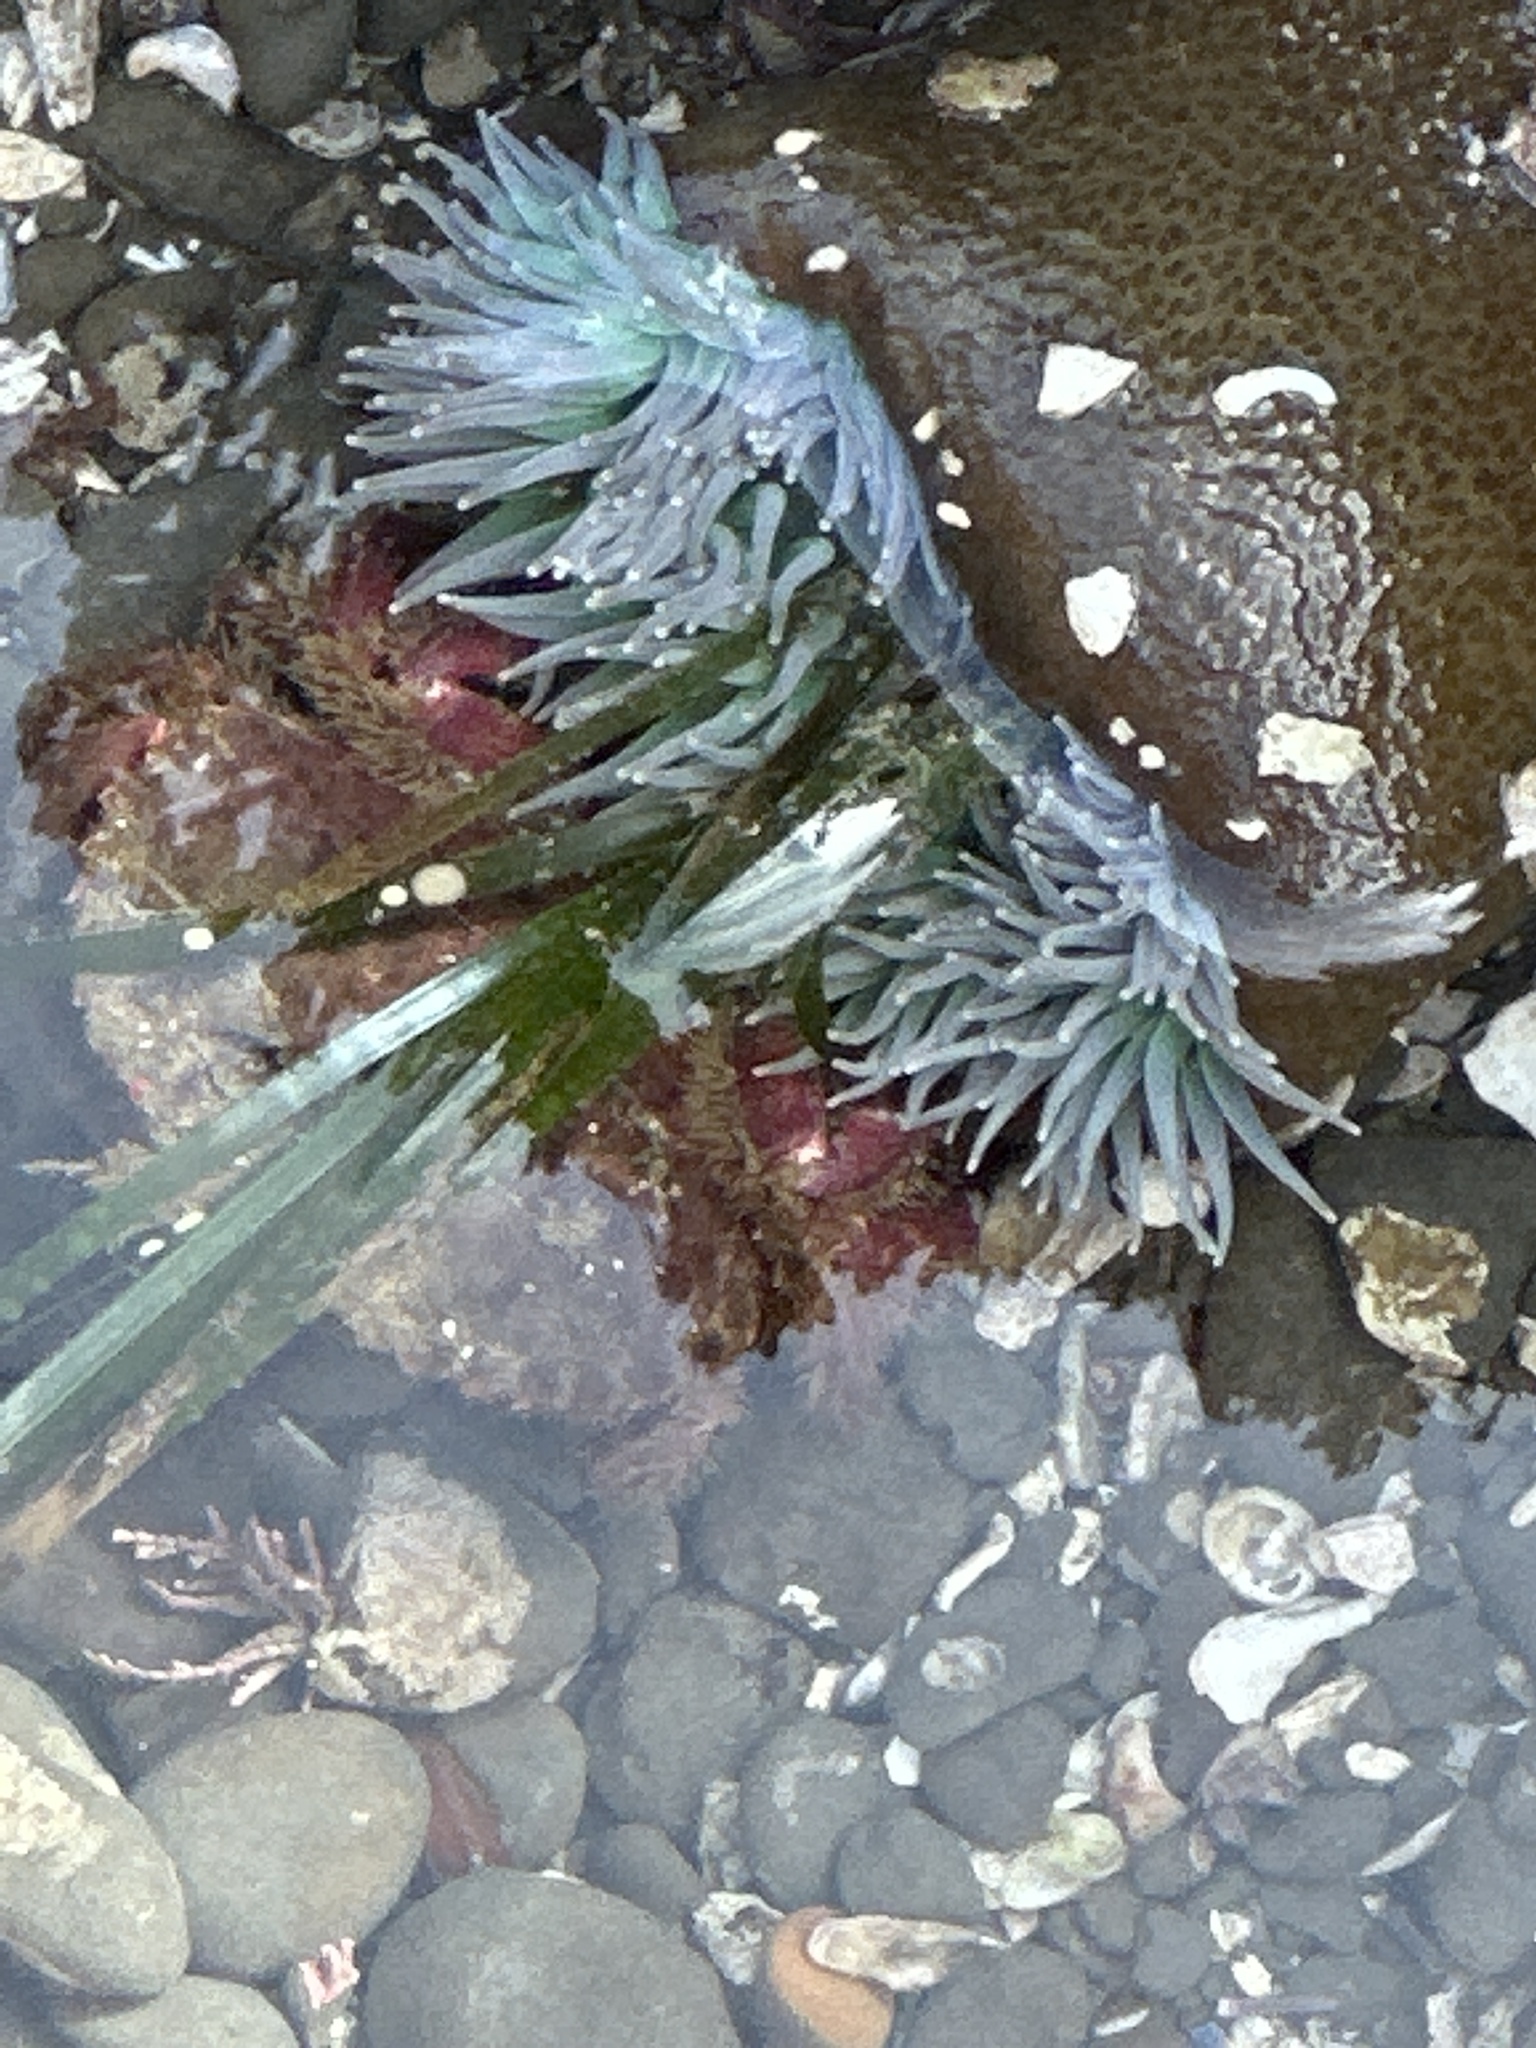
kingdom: Animalia
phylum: Cnidaria
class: Anthozoa
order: Actiniaria
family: Actiniidae
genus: Anthopleura
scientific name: Anthopleura xanthogrammica
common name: Giant green anemone
